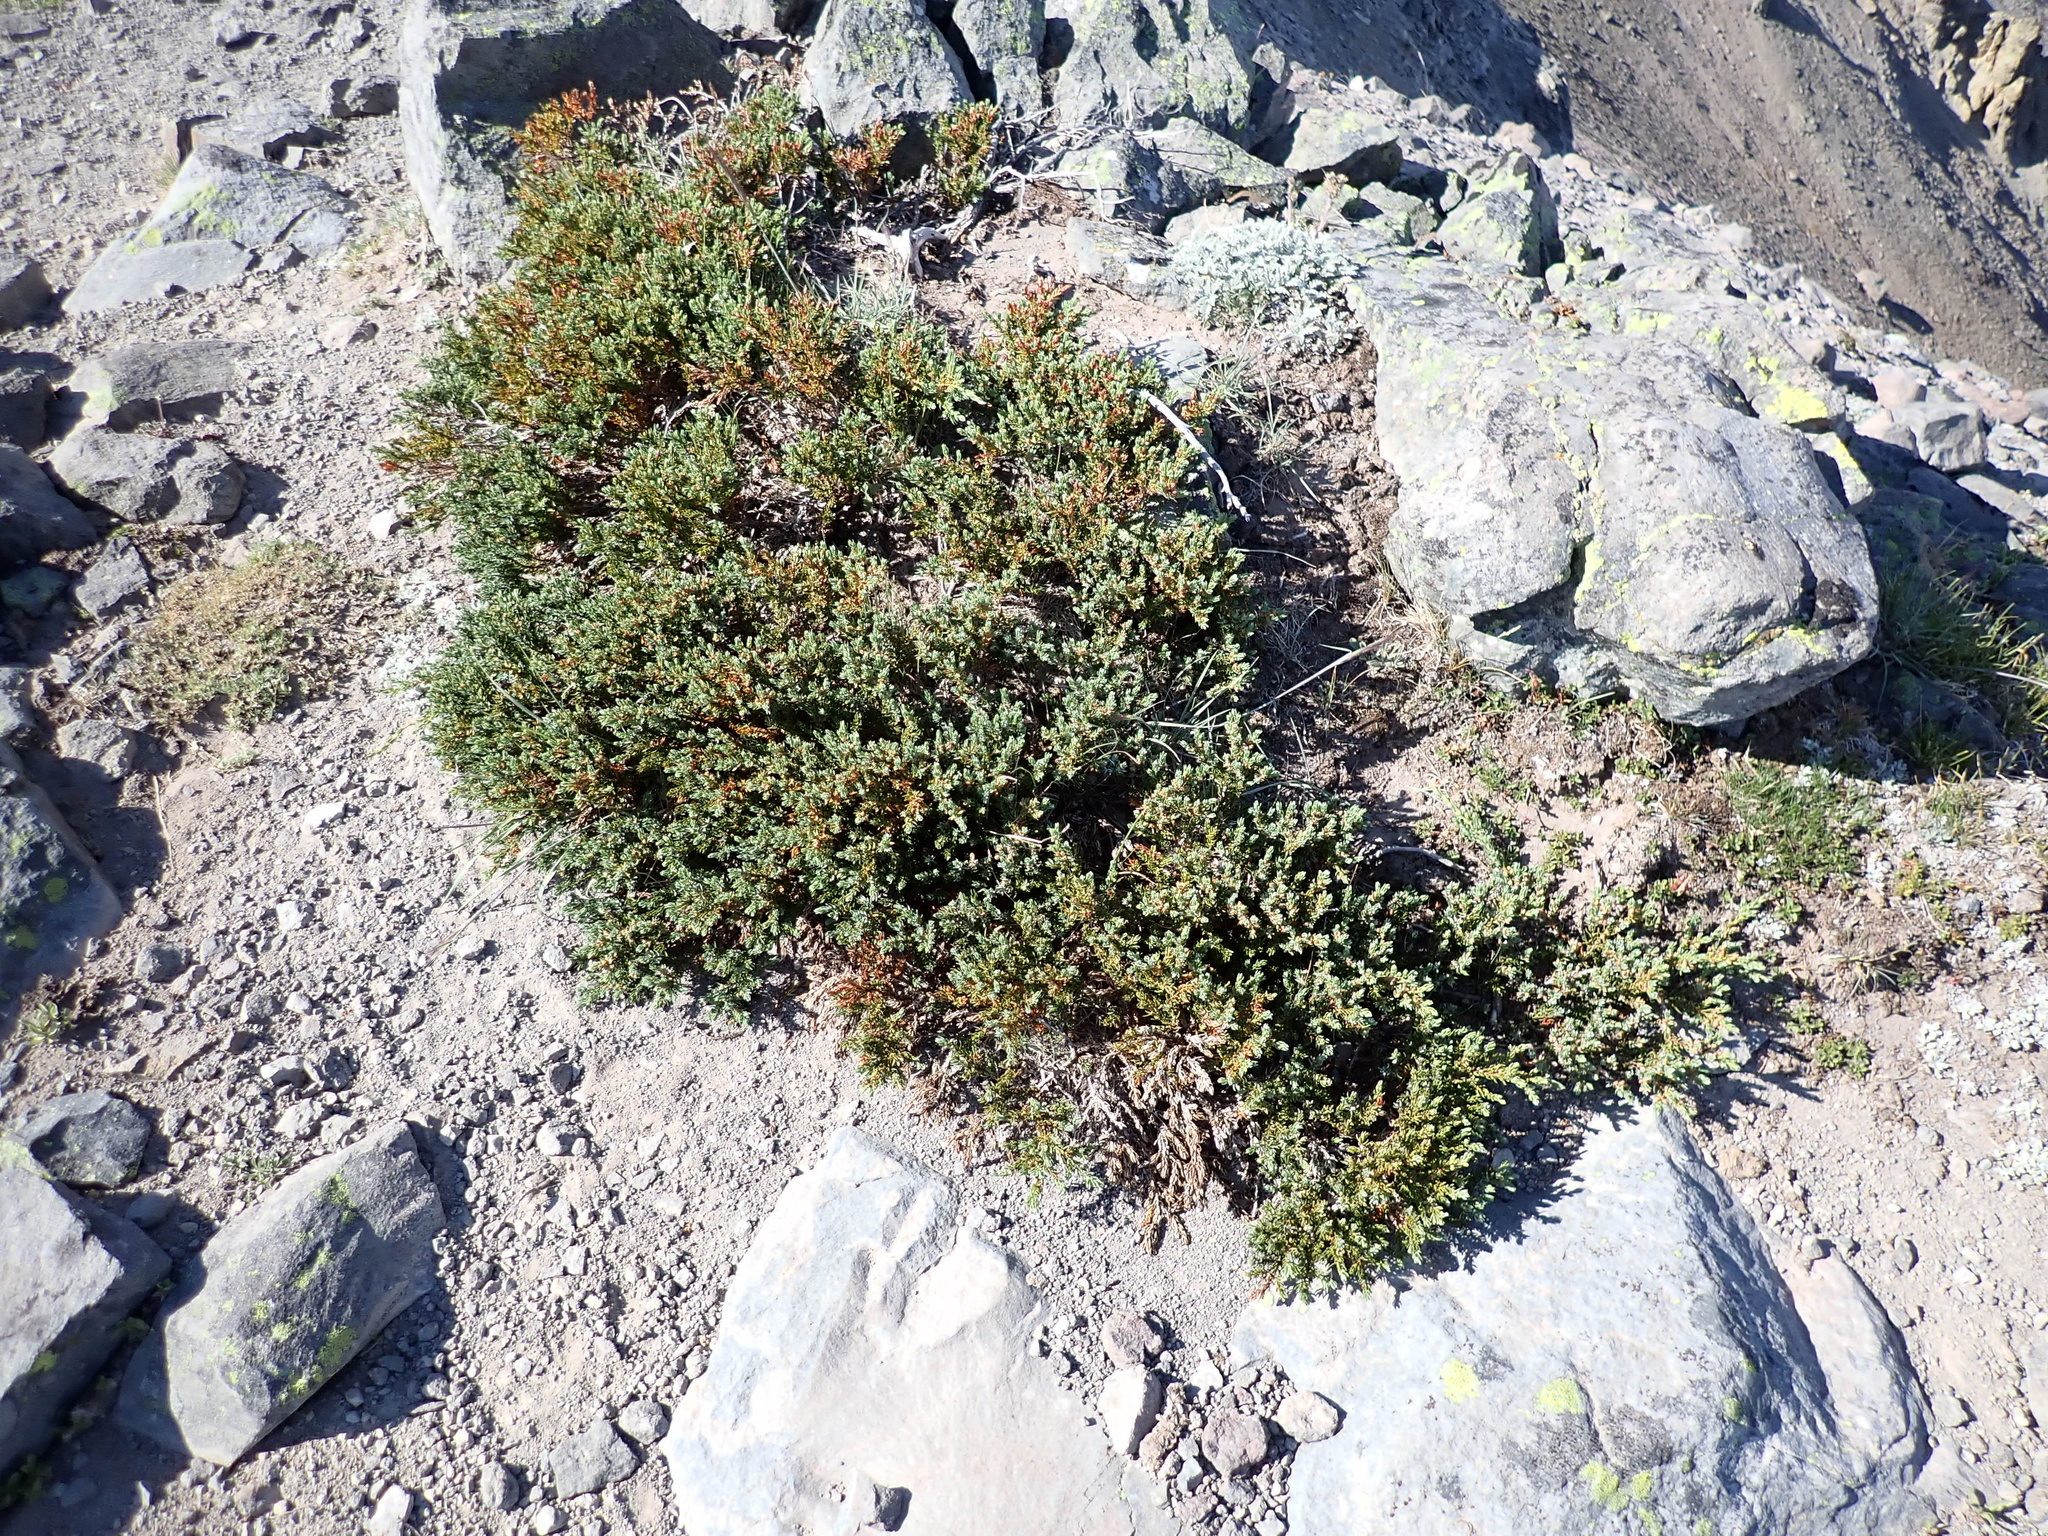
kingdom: Plantae
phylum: Tracheophyta
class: Pinopsida
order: Pinales
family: Cupressaceae
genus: Juniperus
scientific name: Juniperus communis
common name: Common juniper
